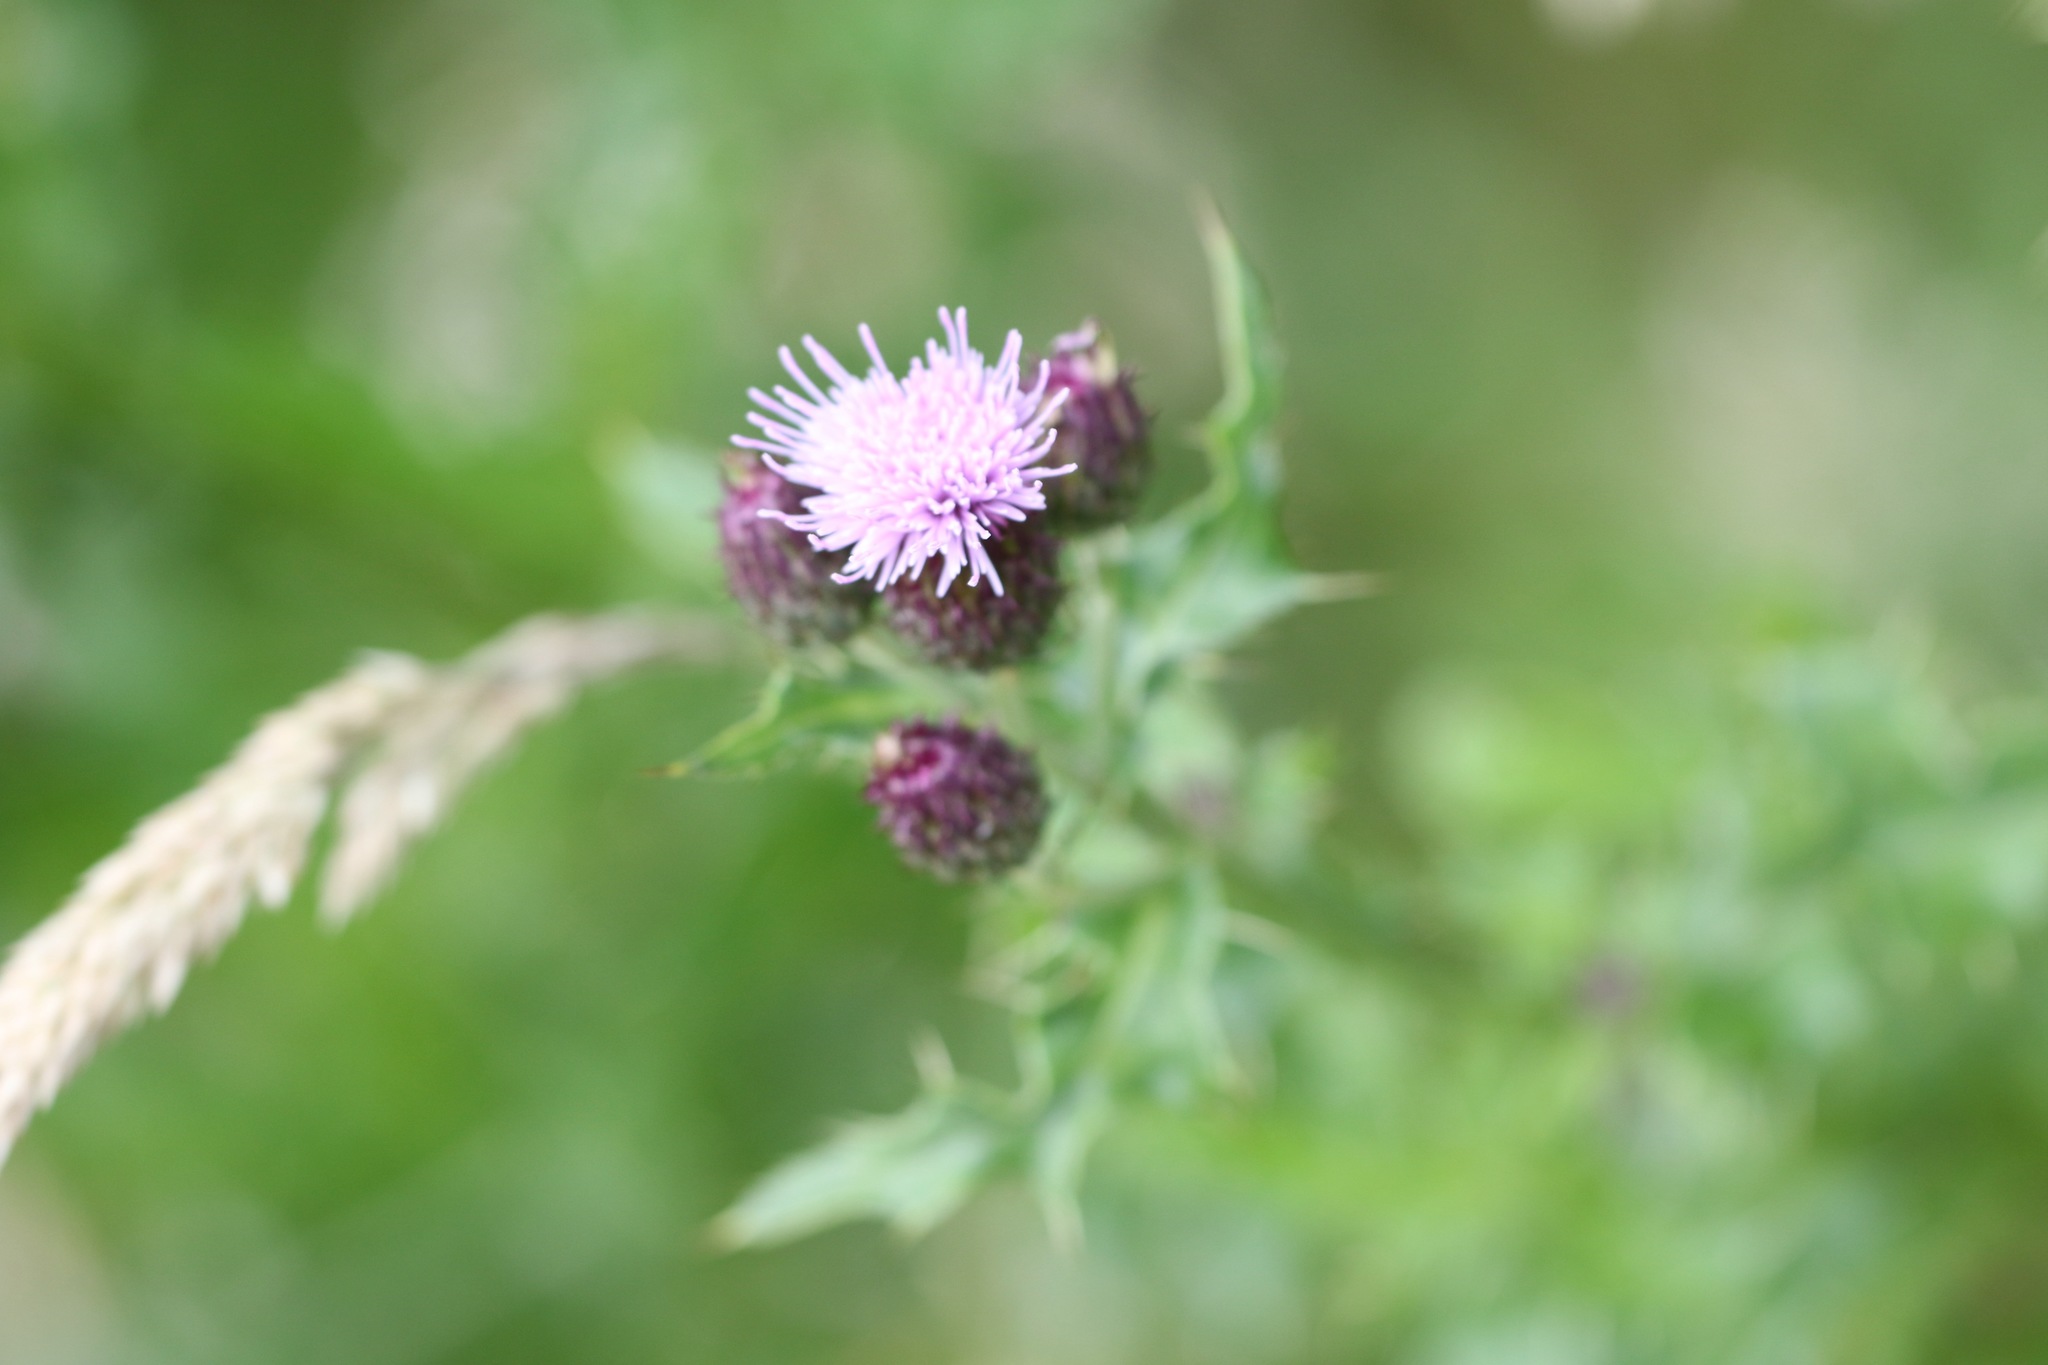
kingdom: Plantae
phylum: Tracheophyta
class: Magnoliopsida
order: Asterales
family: Asteraceae
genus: Cirsium
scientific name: Cirsium arvense
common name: Creeping thistle
